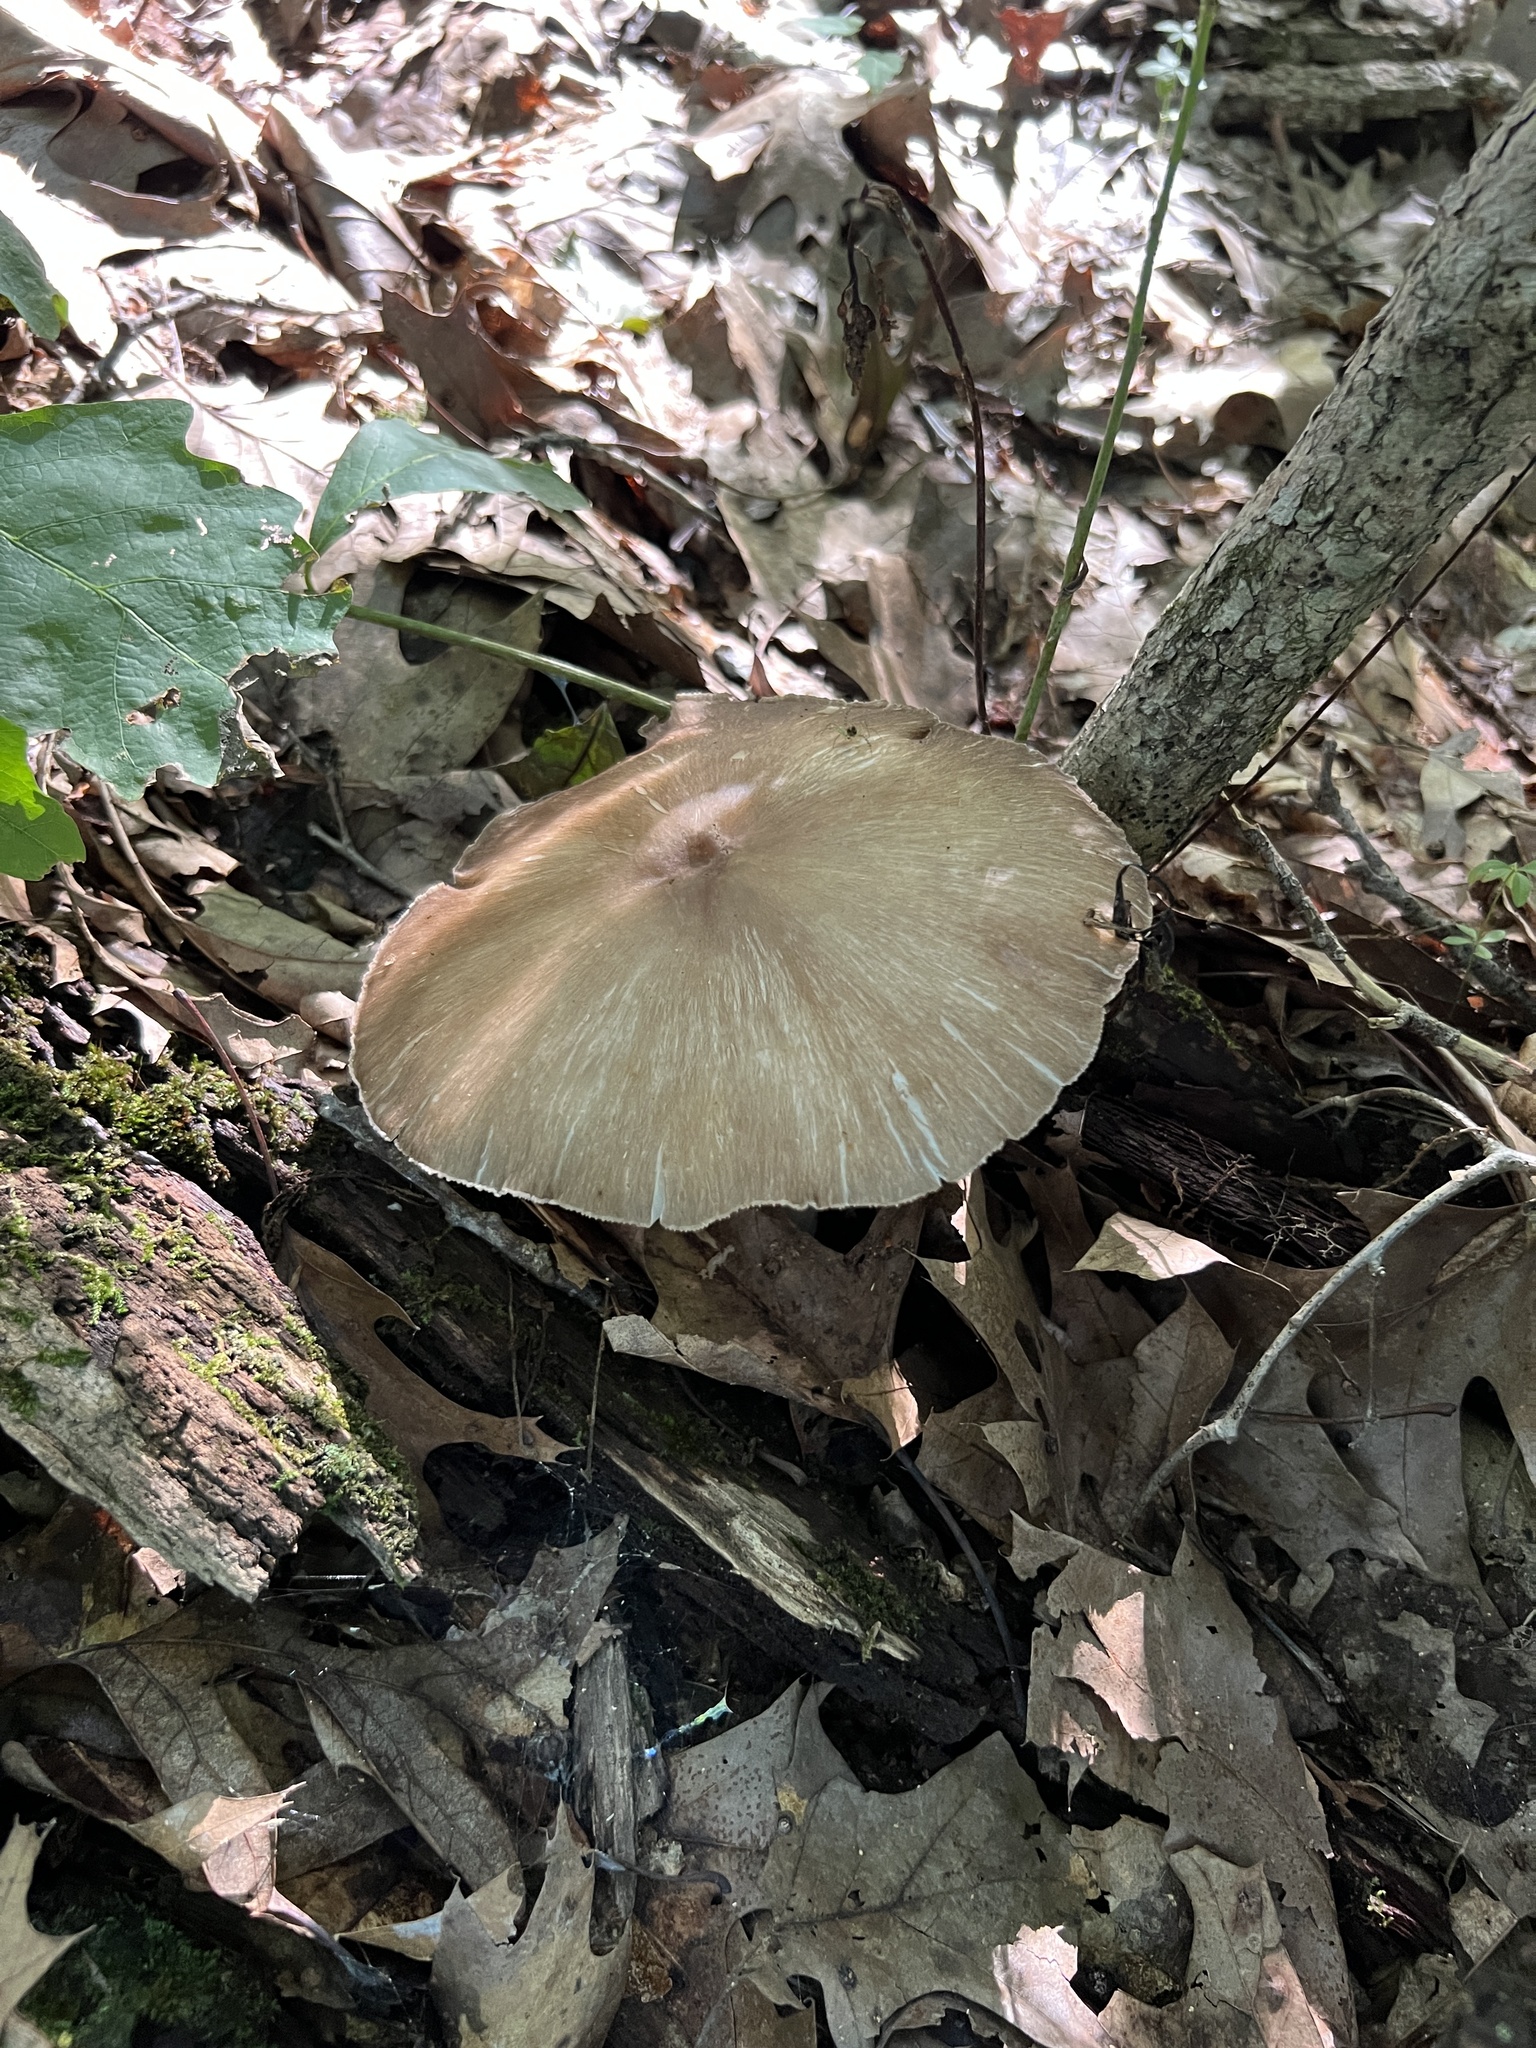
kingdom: Fungi
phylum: Basidiomycota
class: Agaricomycetes
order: Agaricales
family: Pluteaceae
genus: Pluteus
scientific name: Pluteus cervinus
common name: Deer shield
